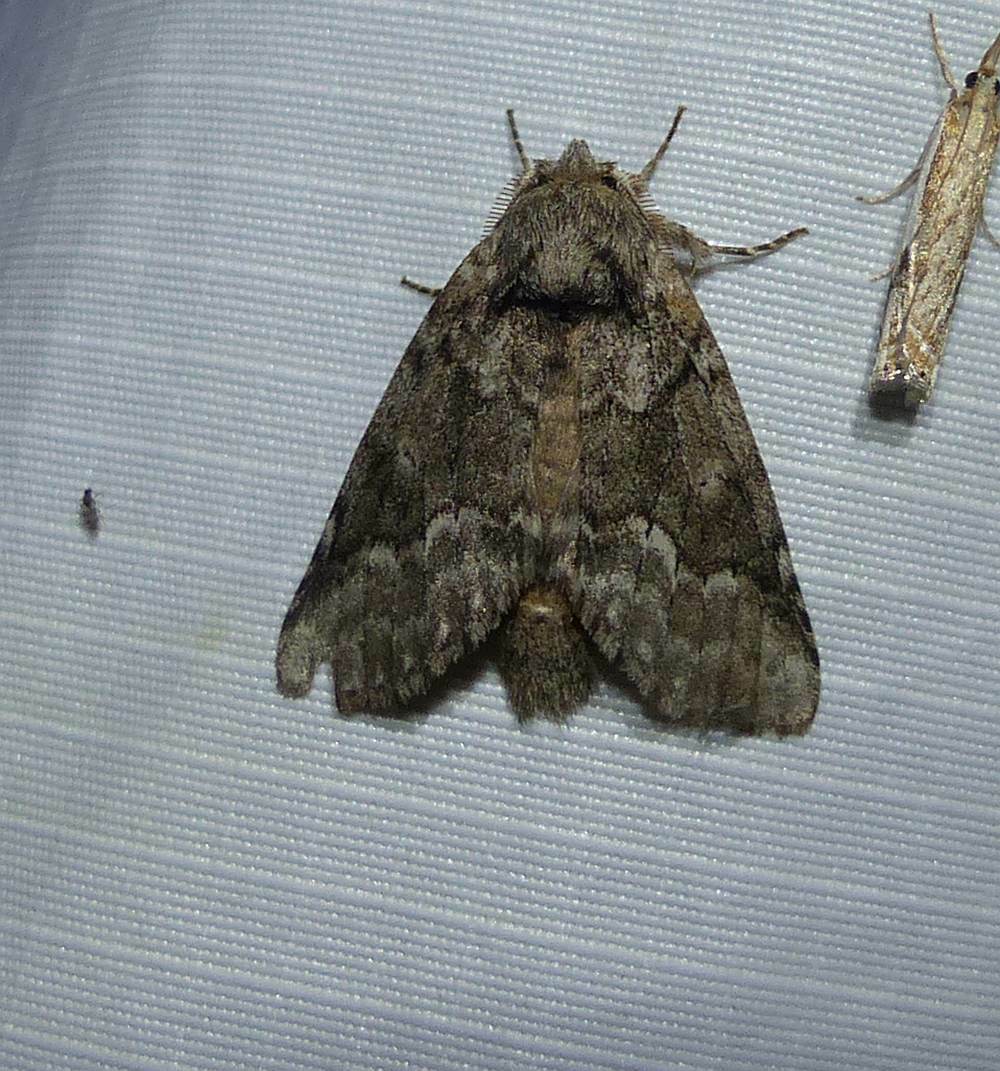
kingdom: Animalia
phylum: Arthropoda
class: Insecta
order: Lepidoptera
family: Notodontidae
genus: Lochmaeus
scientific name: Lochmaeus bilineata
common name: Double-lined prominent
